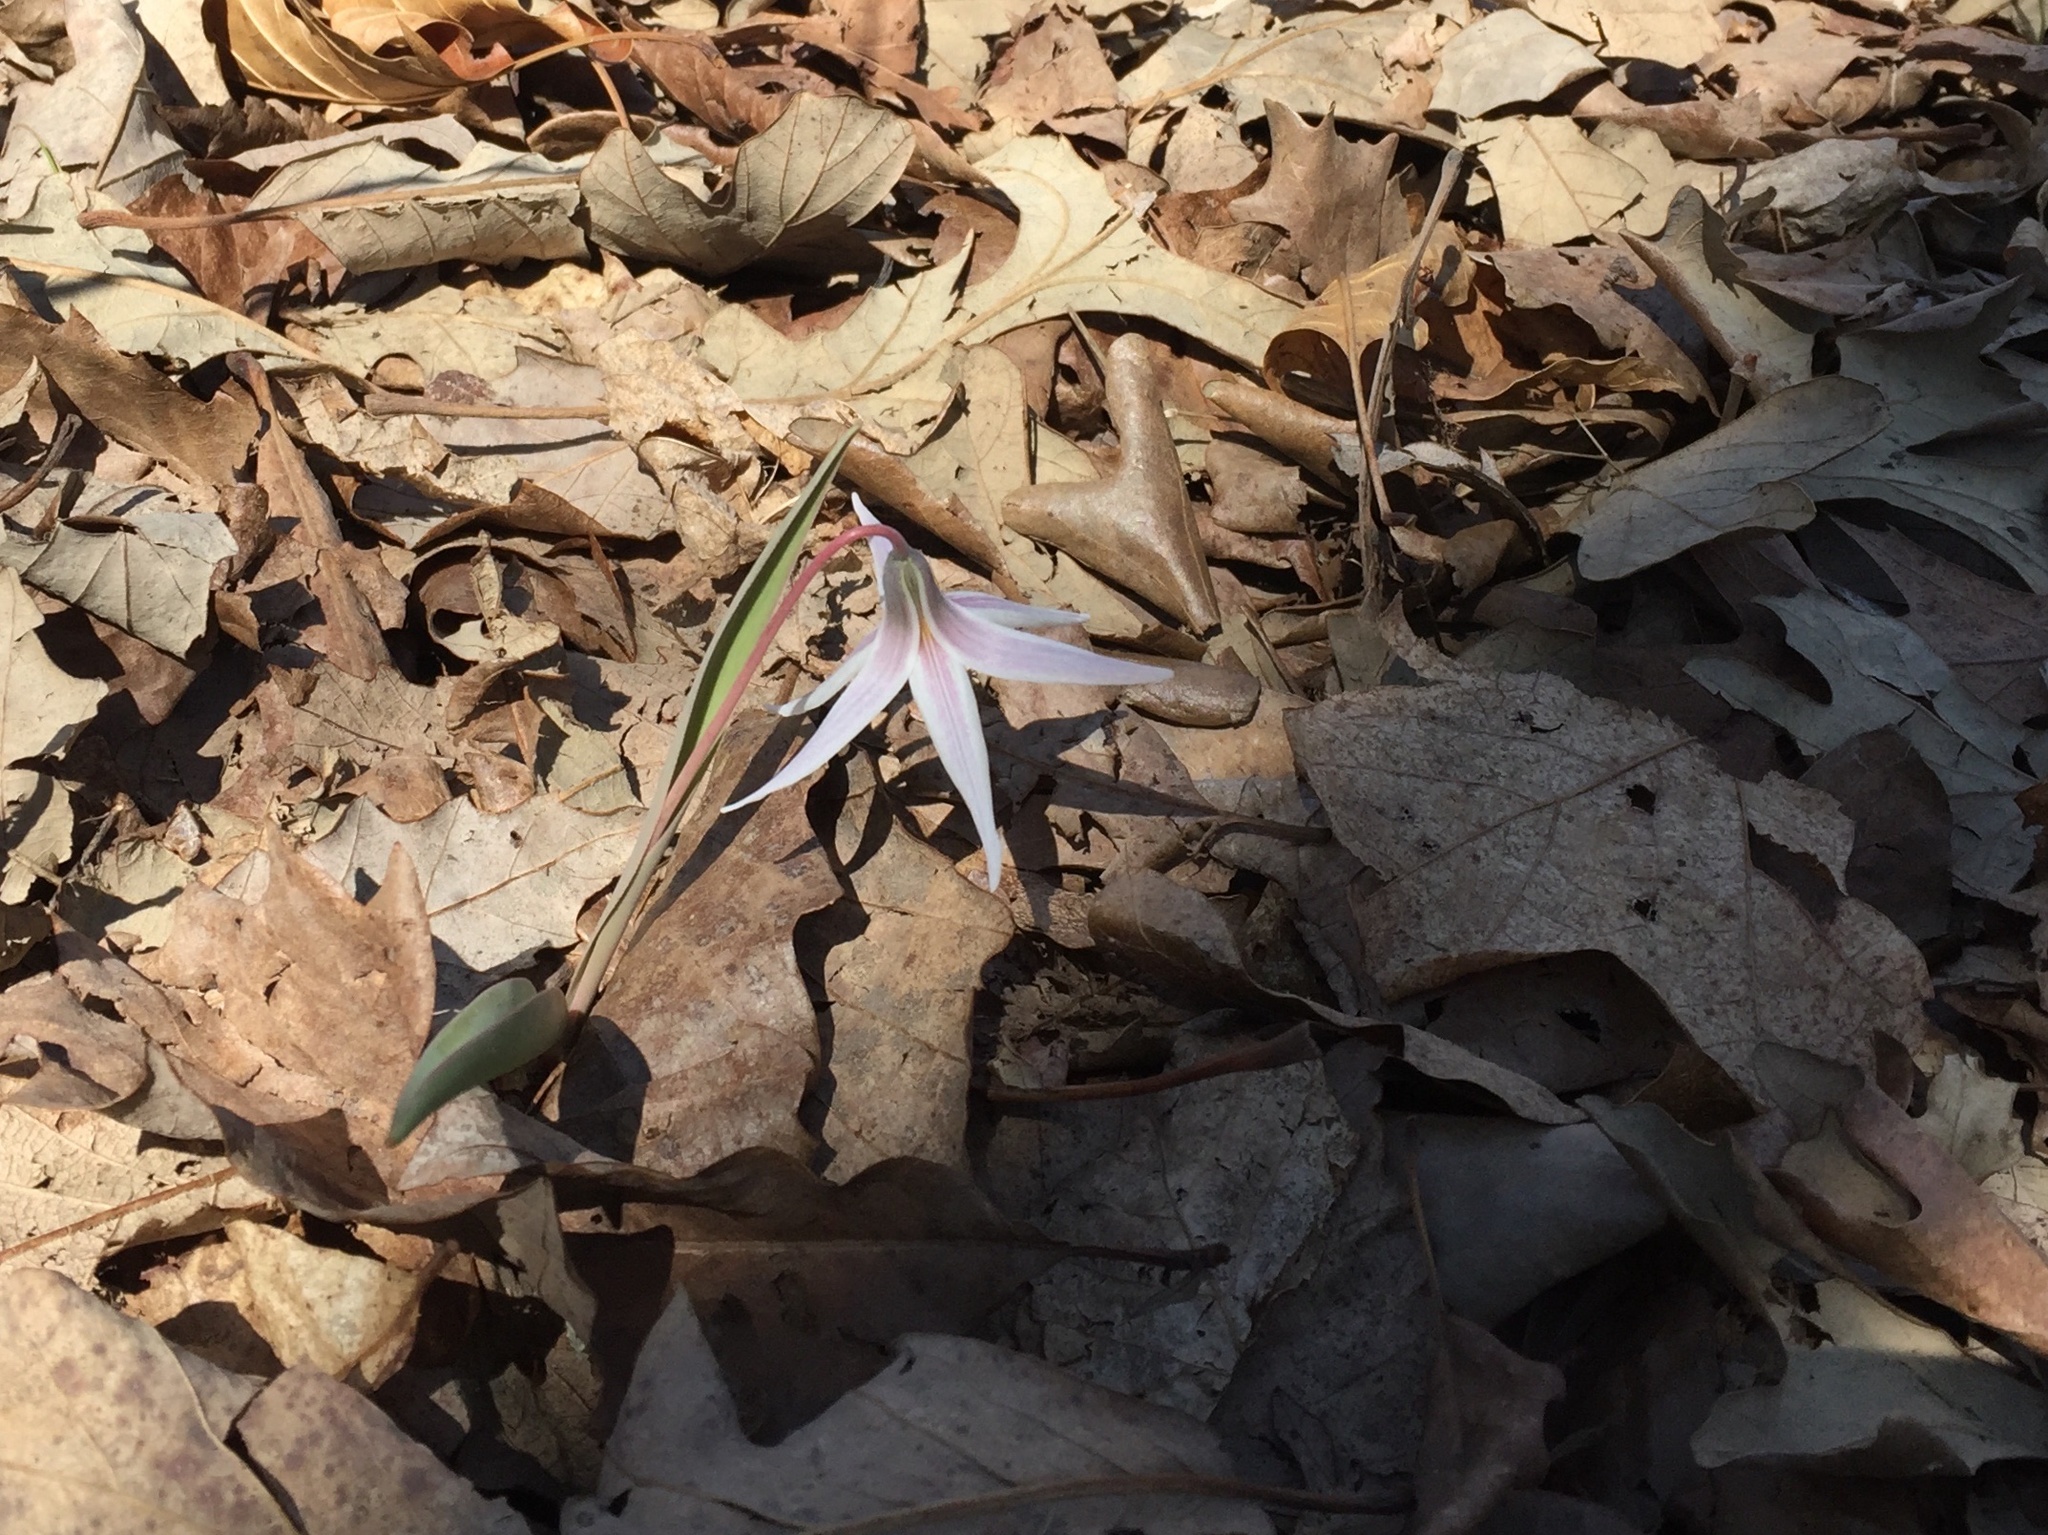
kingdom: Plantae
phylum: Tracheophyta
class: Liliopsida
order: Liliales
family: Liliaceae
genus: Erythronium
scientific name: Erythronium mesochoreum
